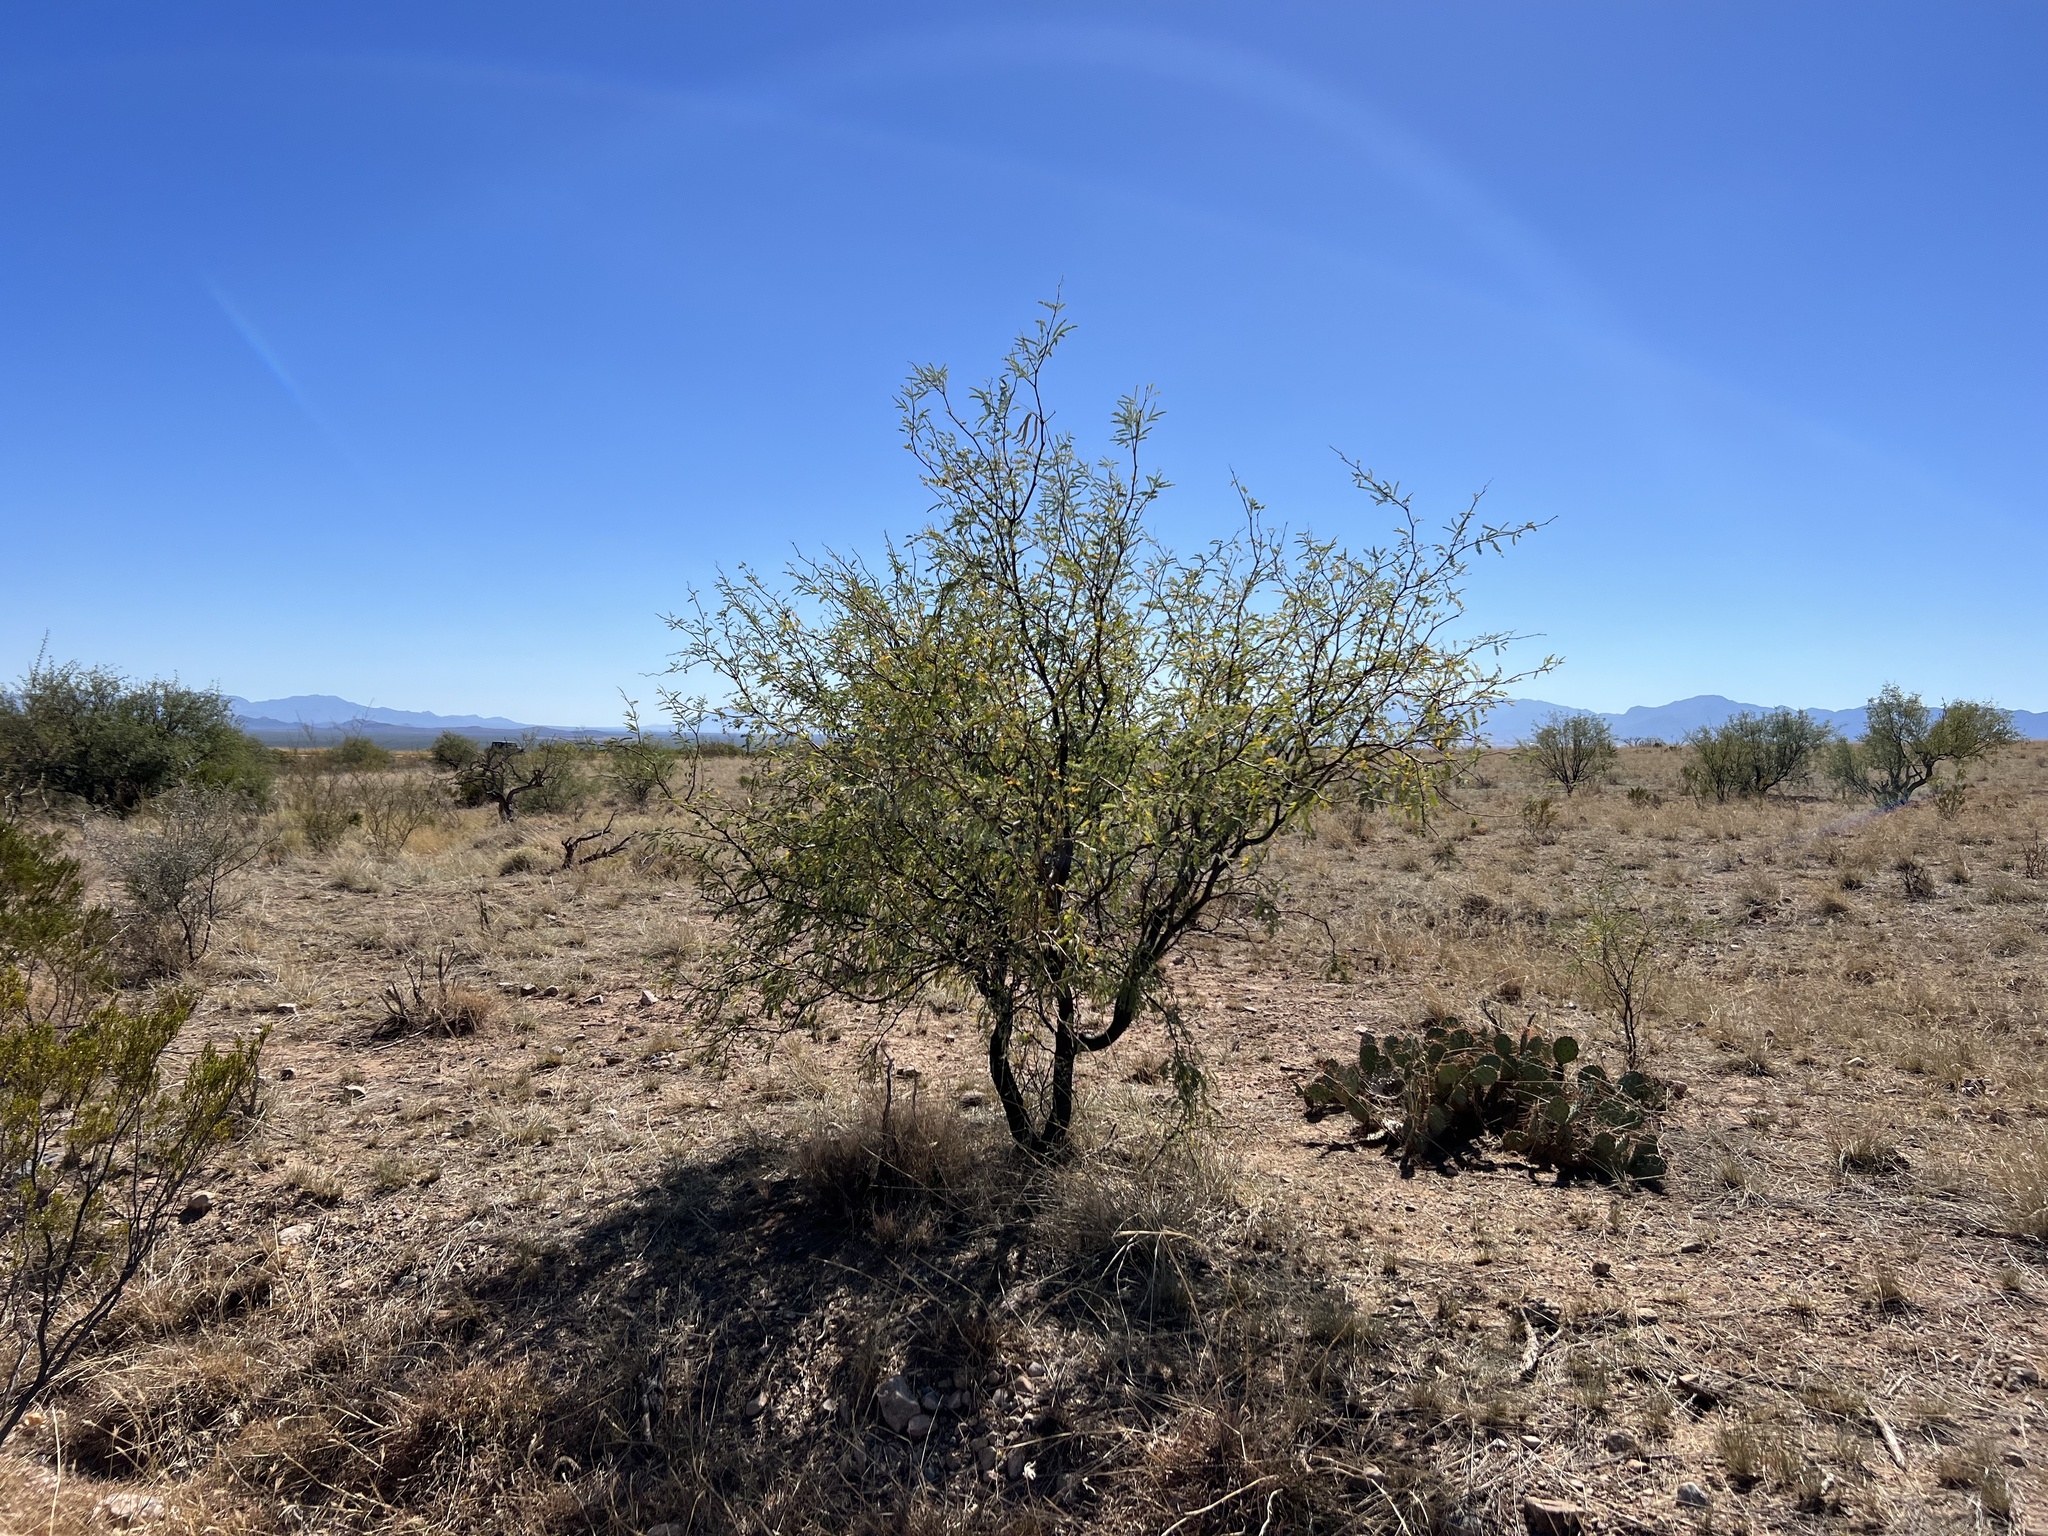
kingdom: Plantae
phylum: Tracheophyta
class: Magnoliopsida
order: Fabales
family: Fabaceae
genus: Prosopis
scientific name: Prosopis velutina
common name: Velvet mesquite
